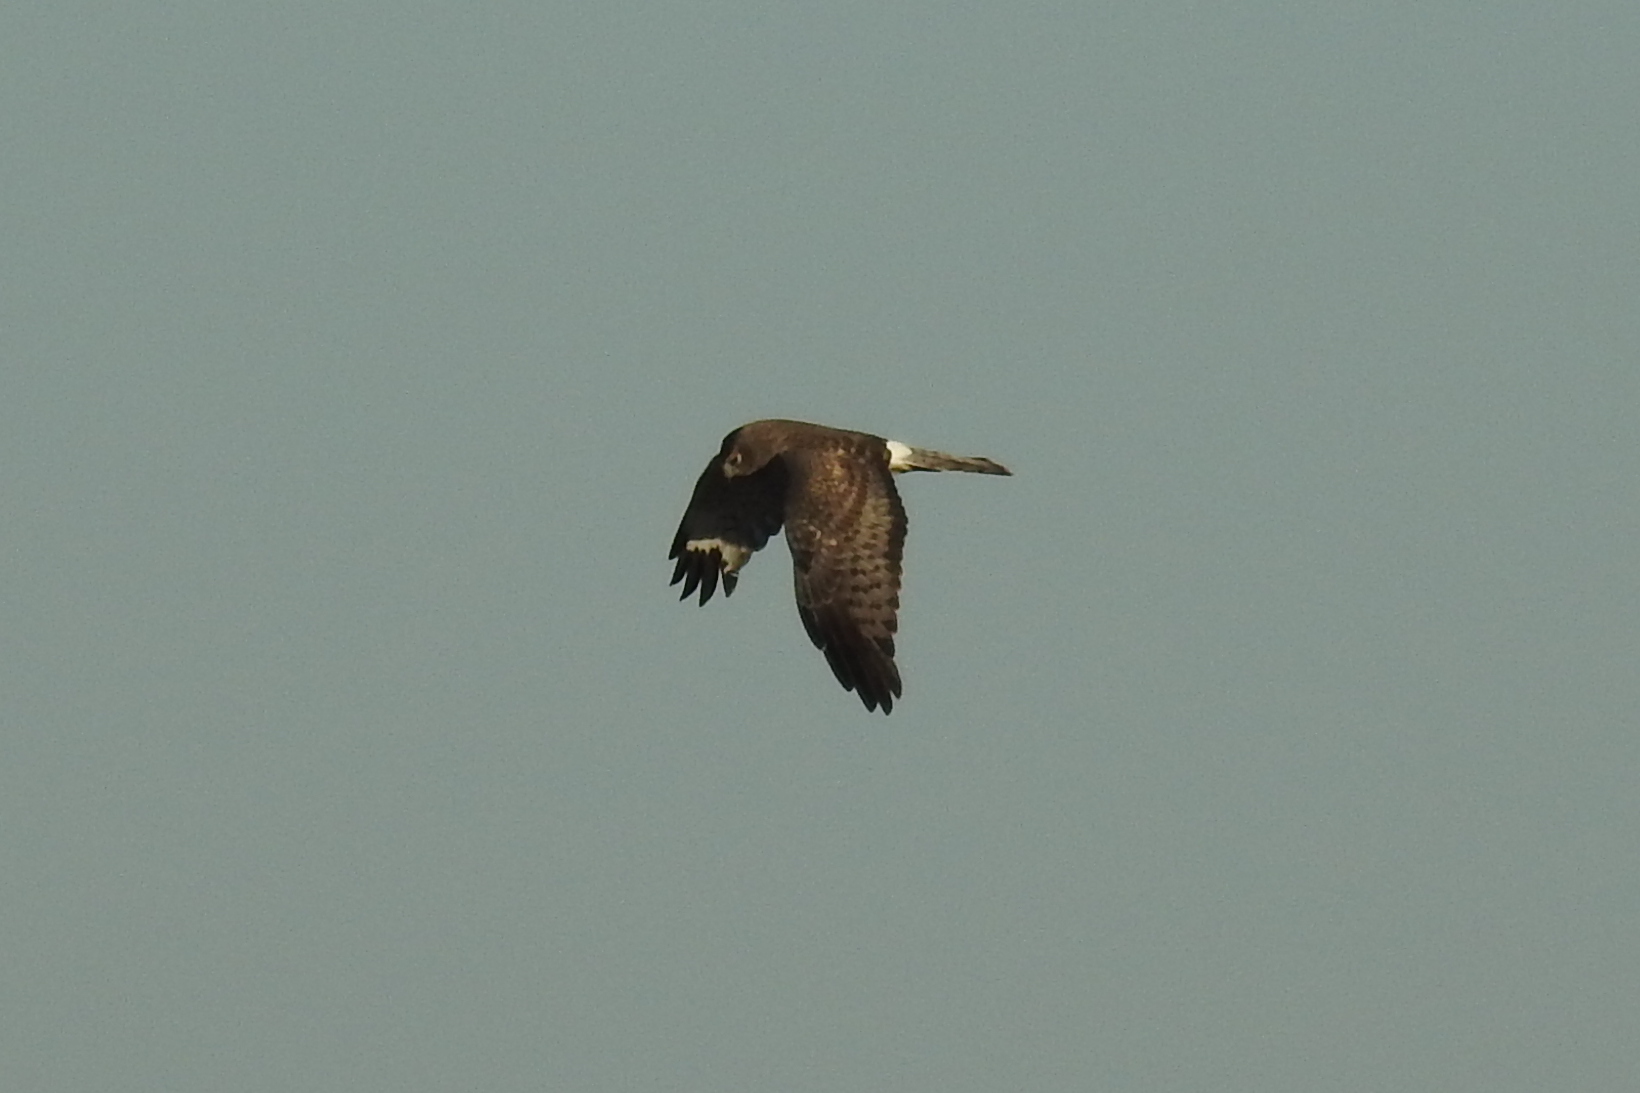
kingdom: Animalia
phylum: Chordata
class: Aves
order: Accipitriformes
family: Accipitridae
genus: Circus
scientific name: Circus cyaneus
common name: Hen harrier
